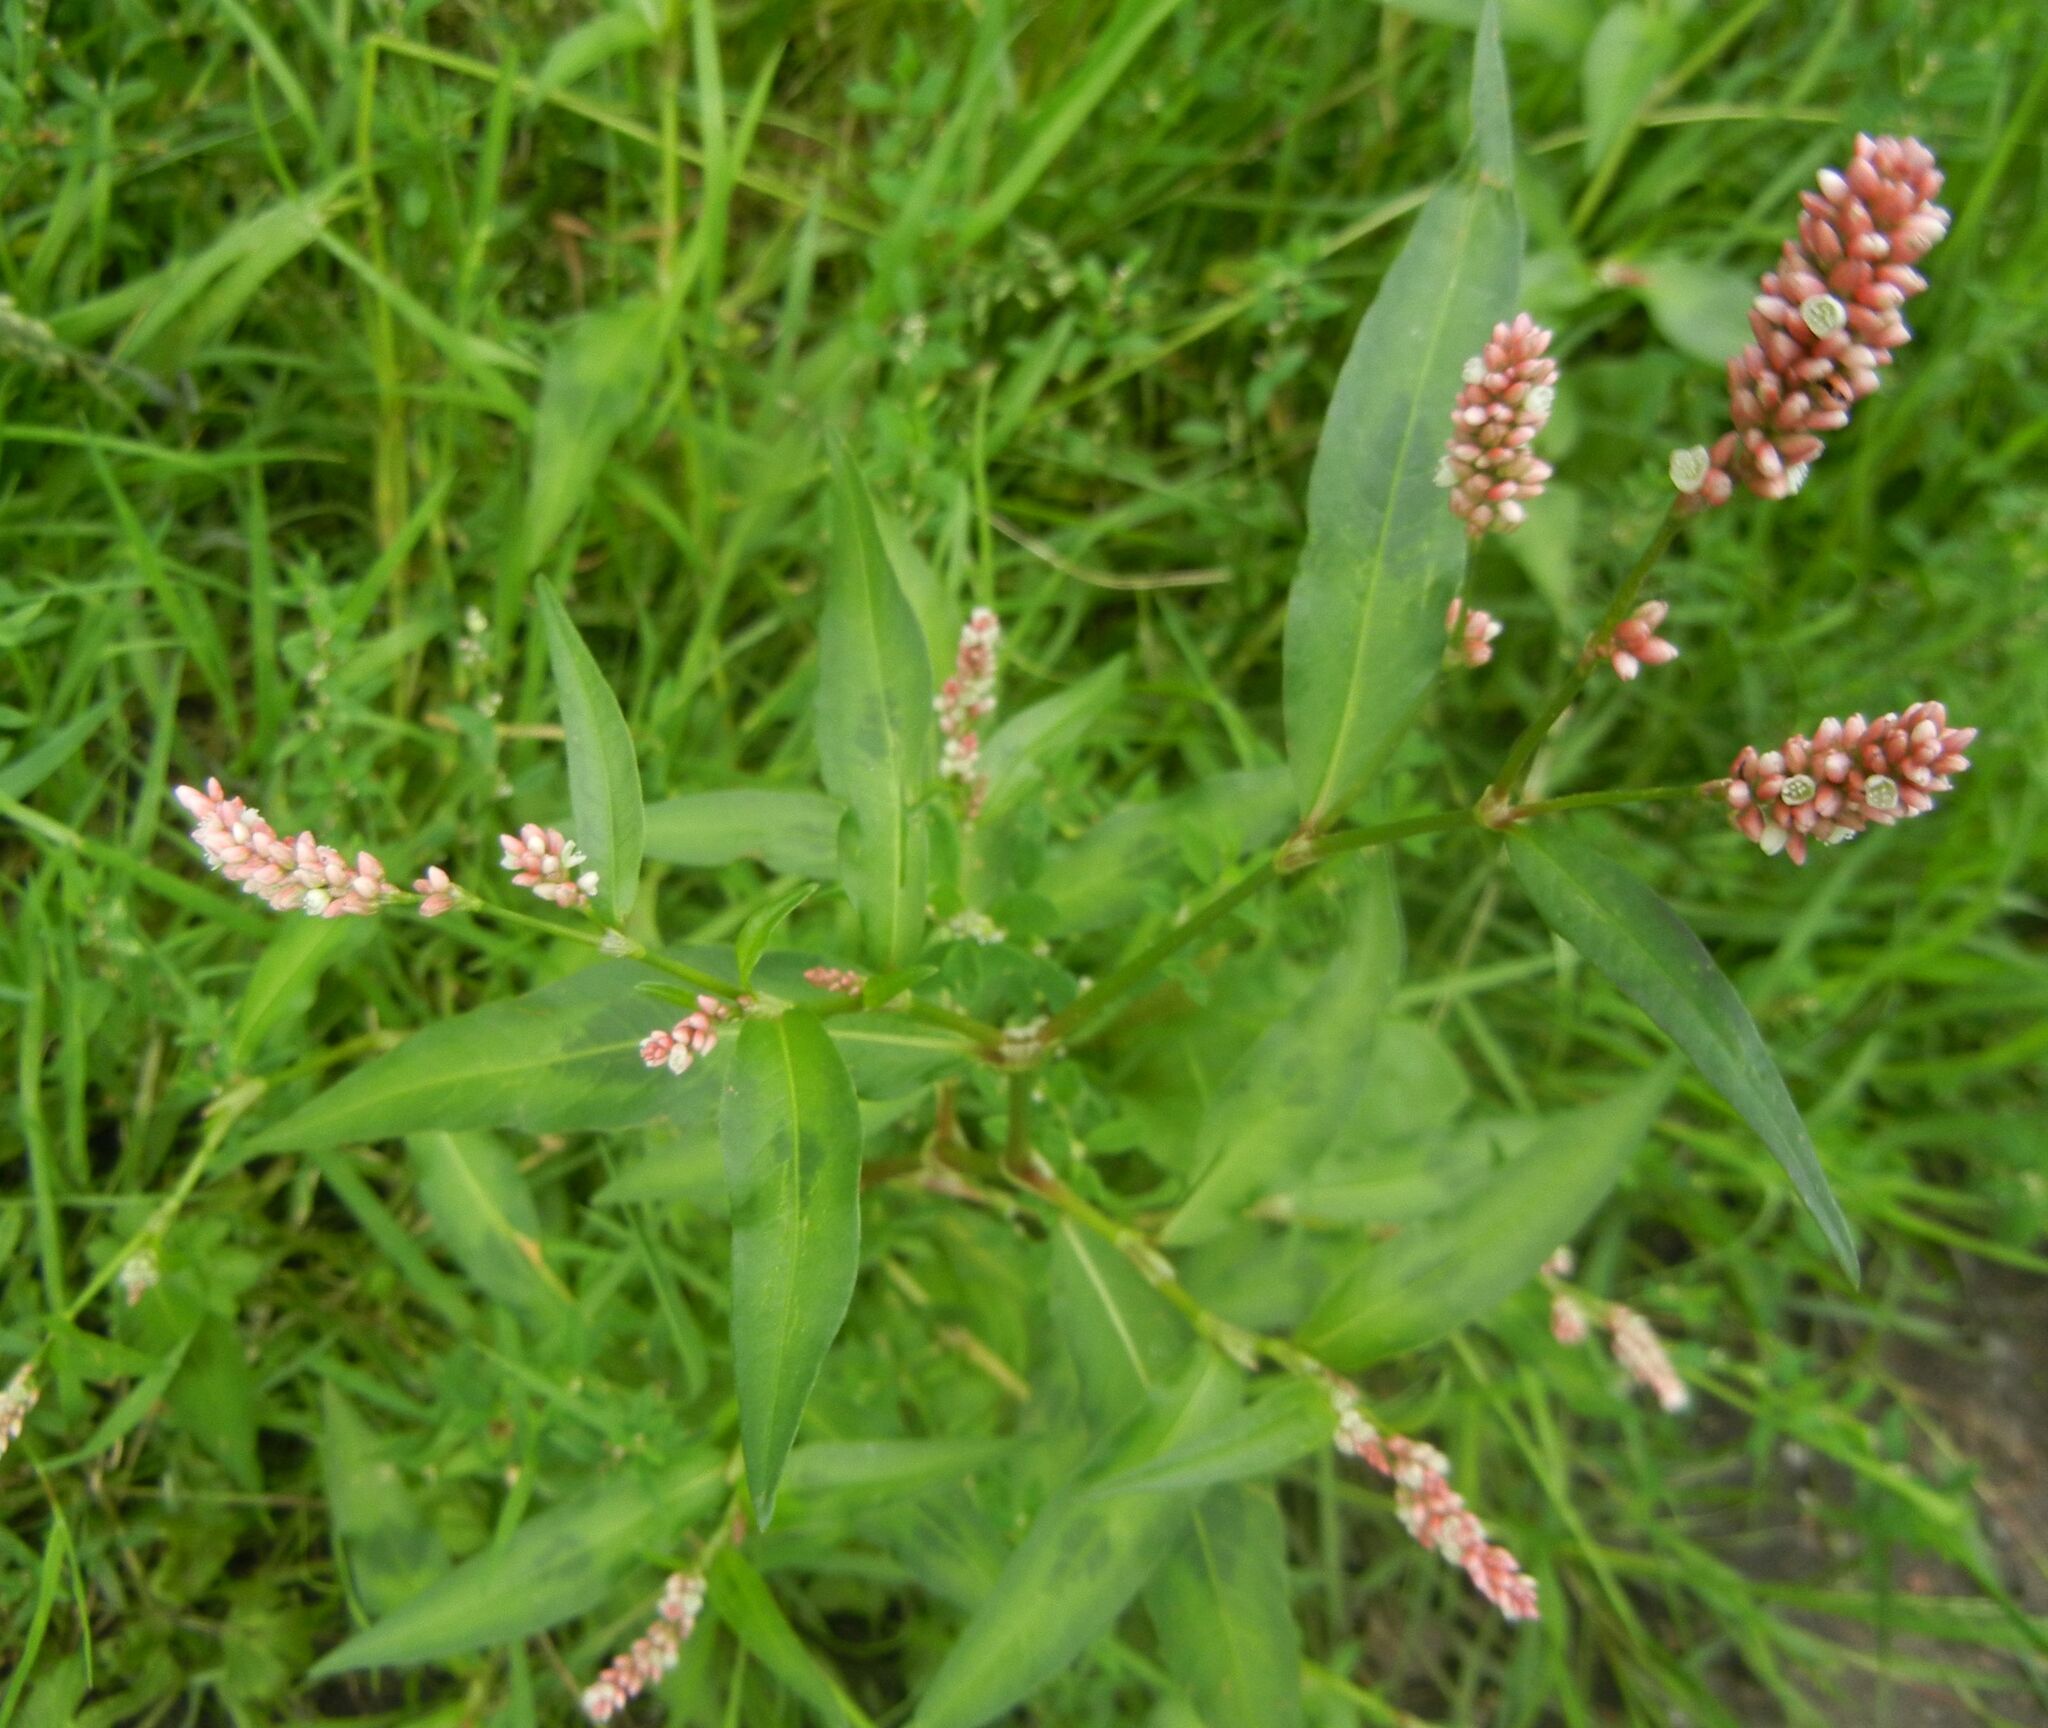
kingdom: Plantae
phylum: Tracheophyta
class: Magnoliopsida
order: Caryophyllales
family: Polygonaceae
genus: Persicaria
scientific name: Persicaria maculosa
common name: Redshank
